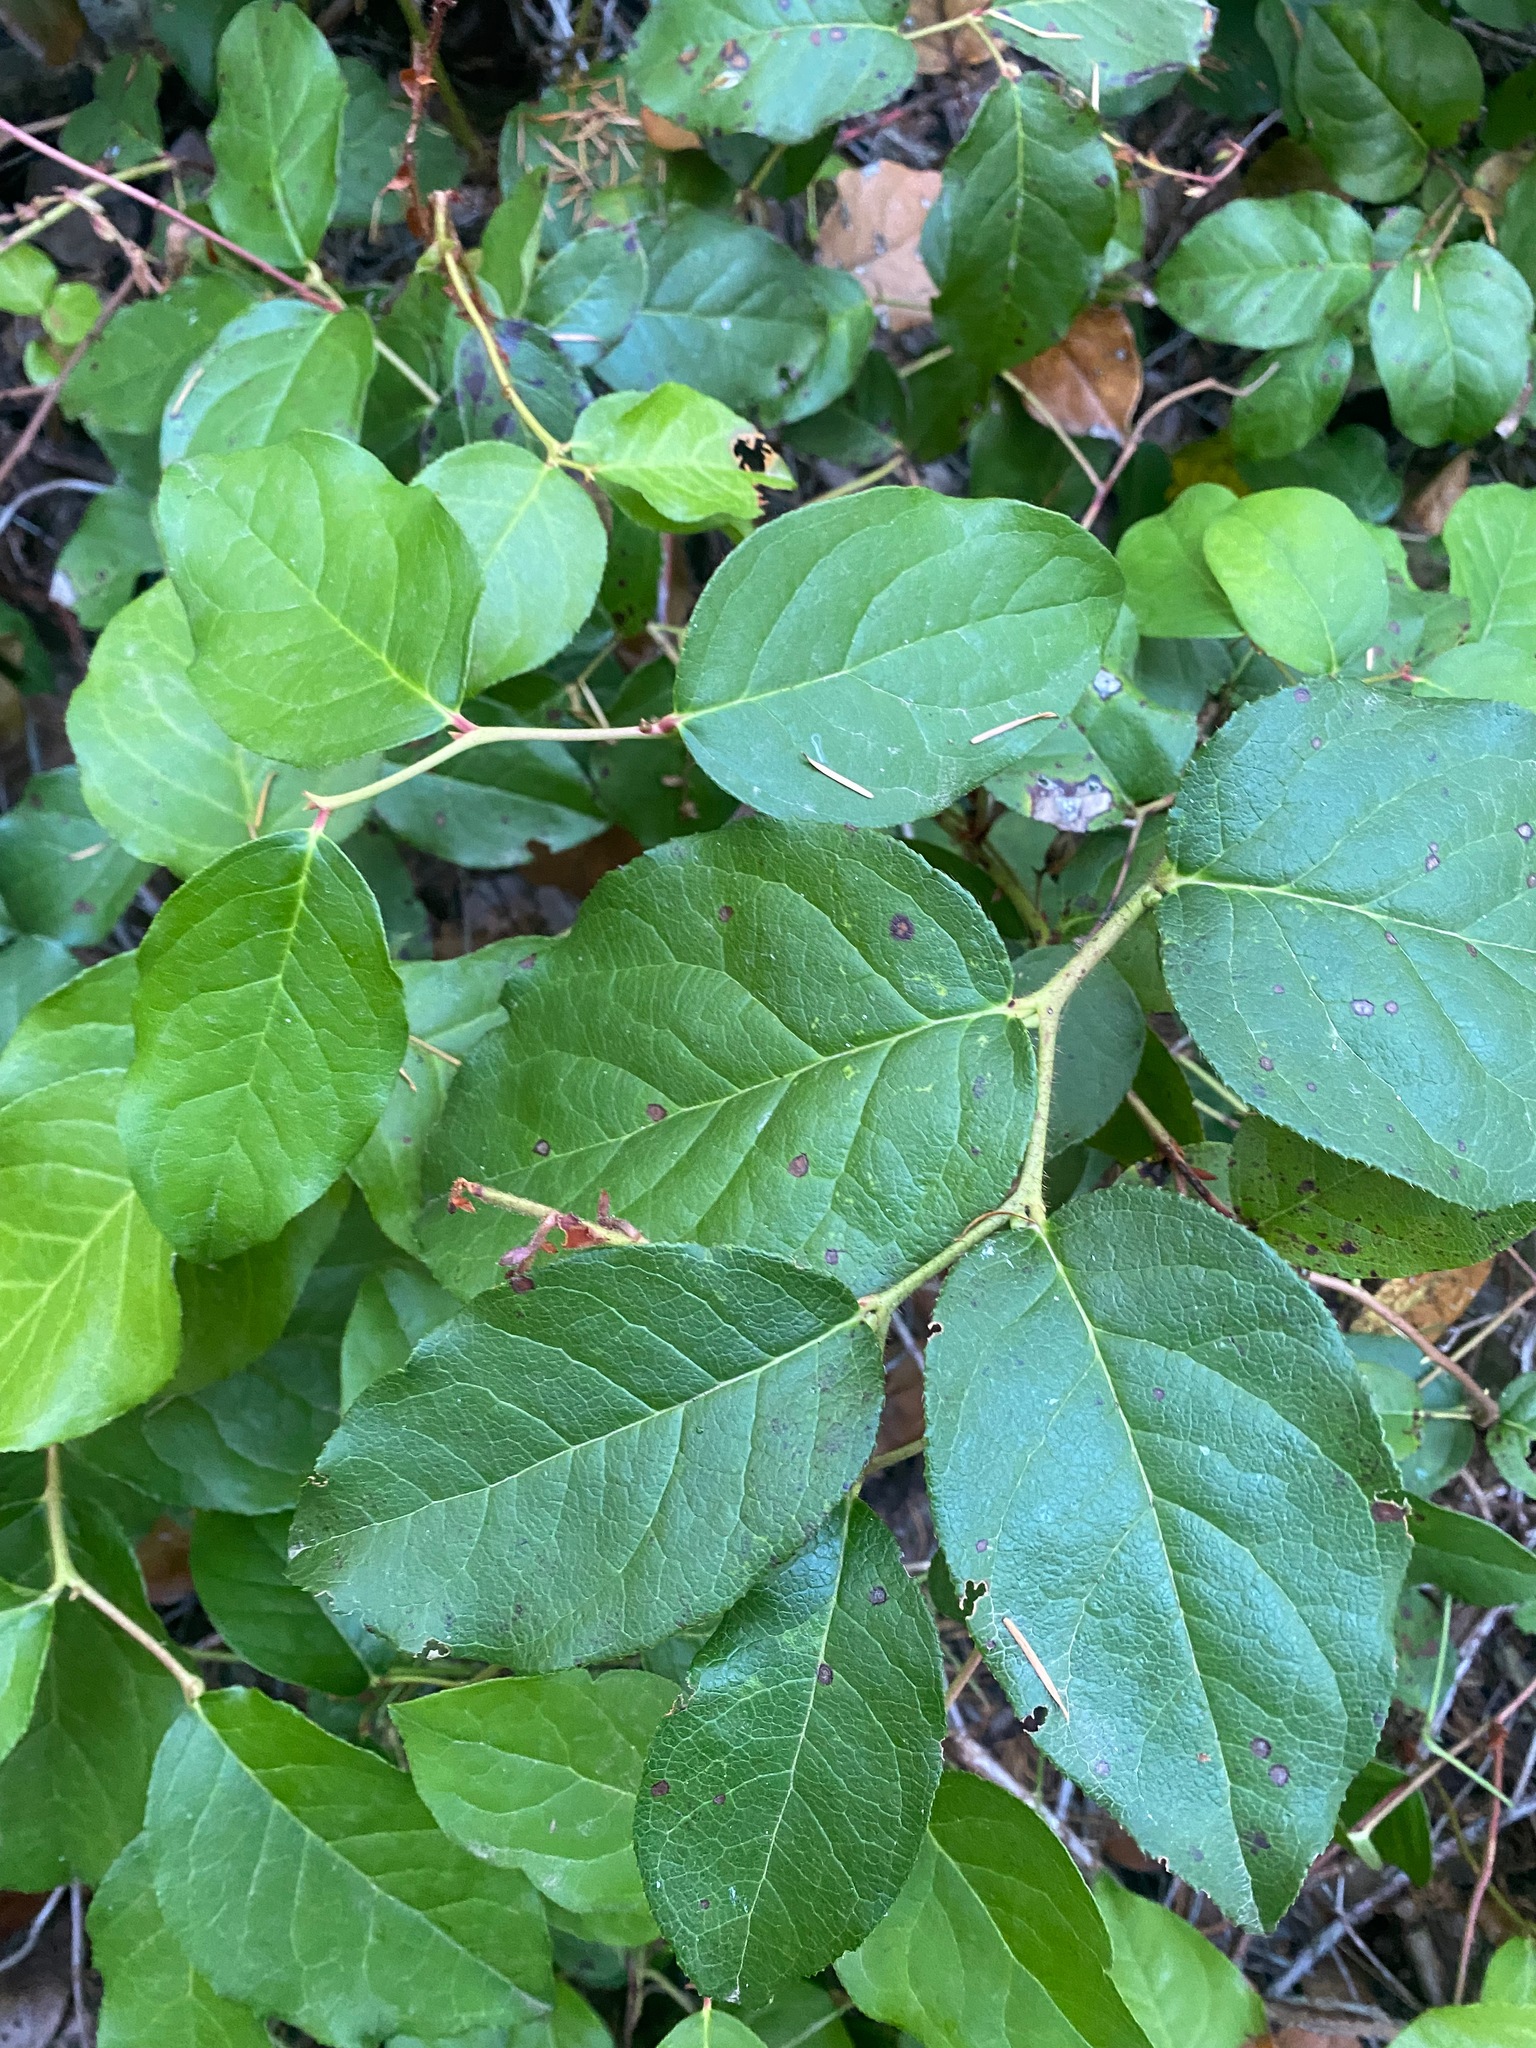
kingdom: Plantae
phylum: Tracheophyta
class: Magnoliopsida
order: Ericales
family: Ericaceae
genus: Gaultheria
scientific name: Gaultheria shallon
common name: Shallon
